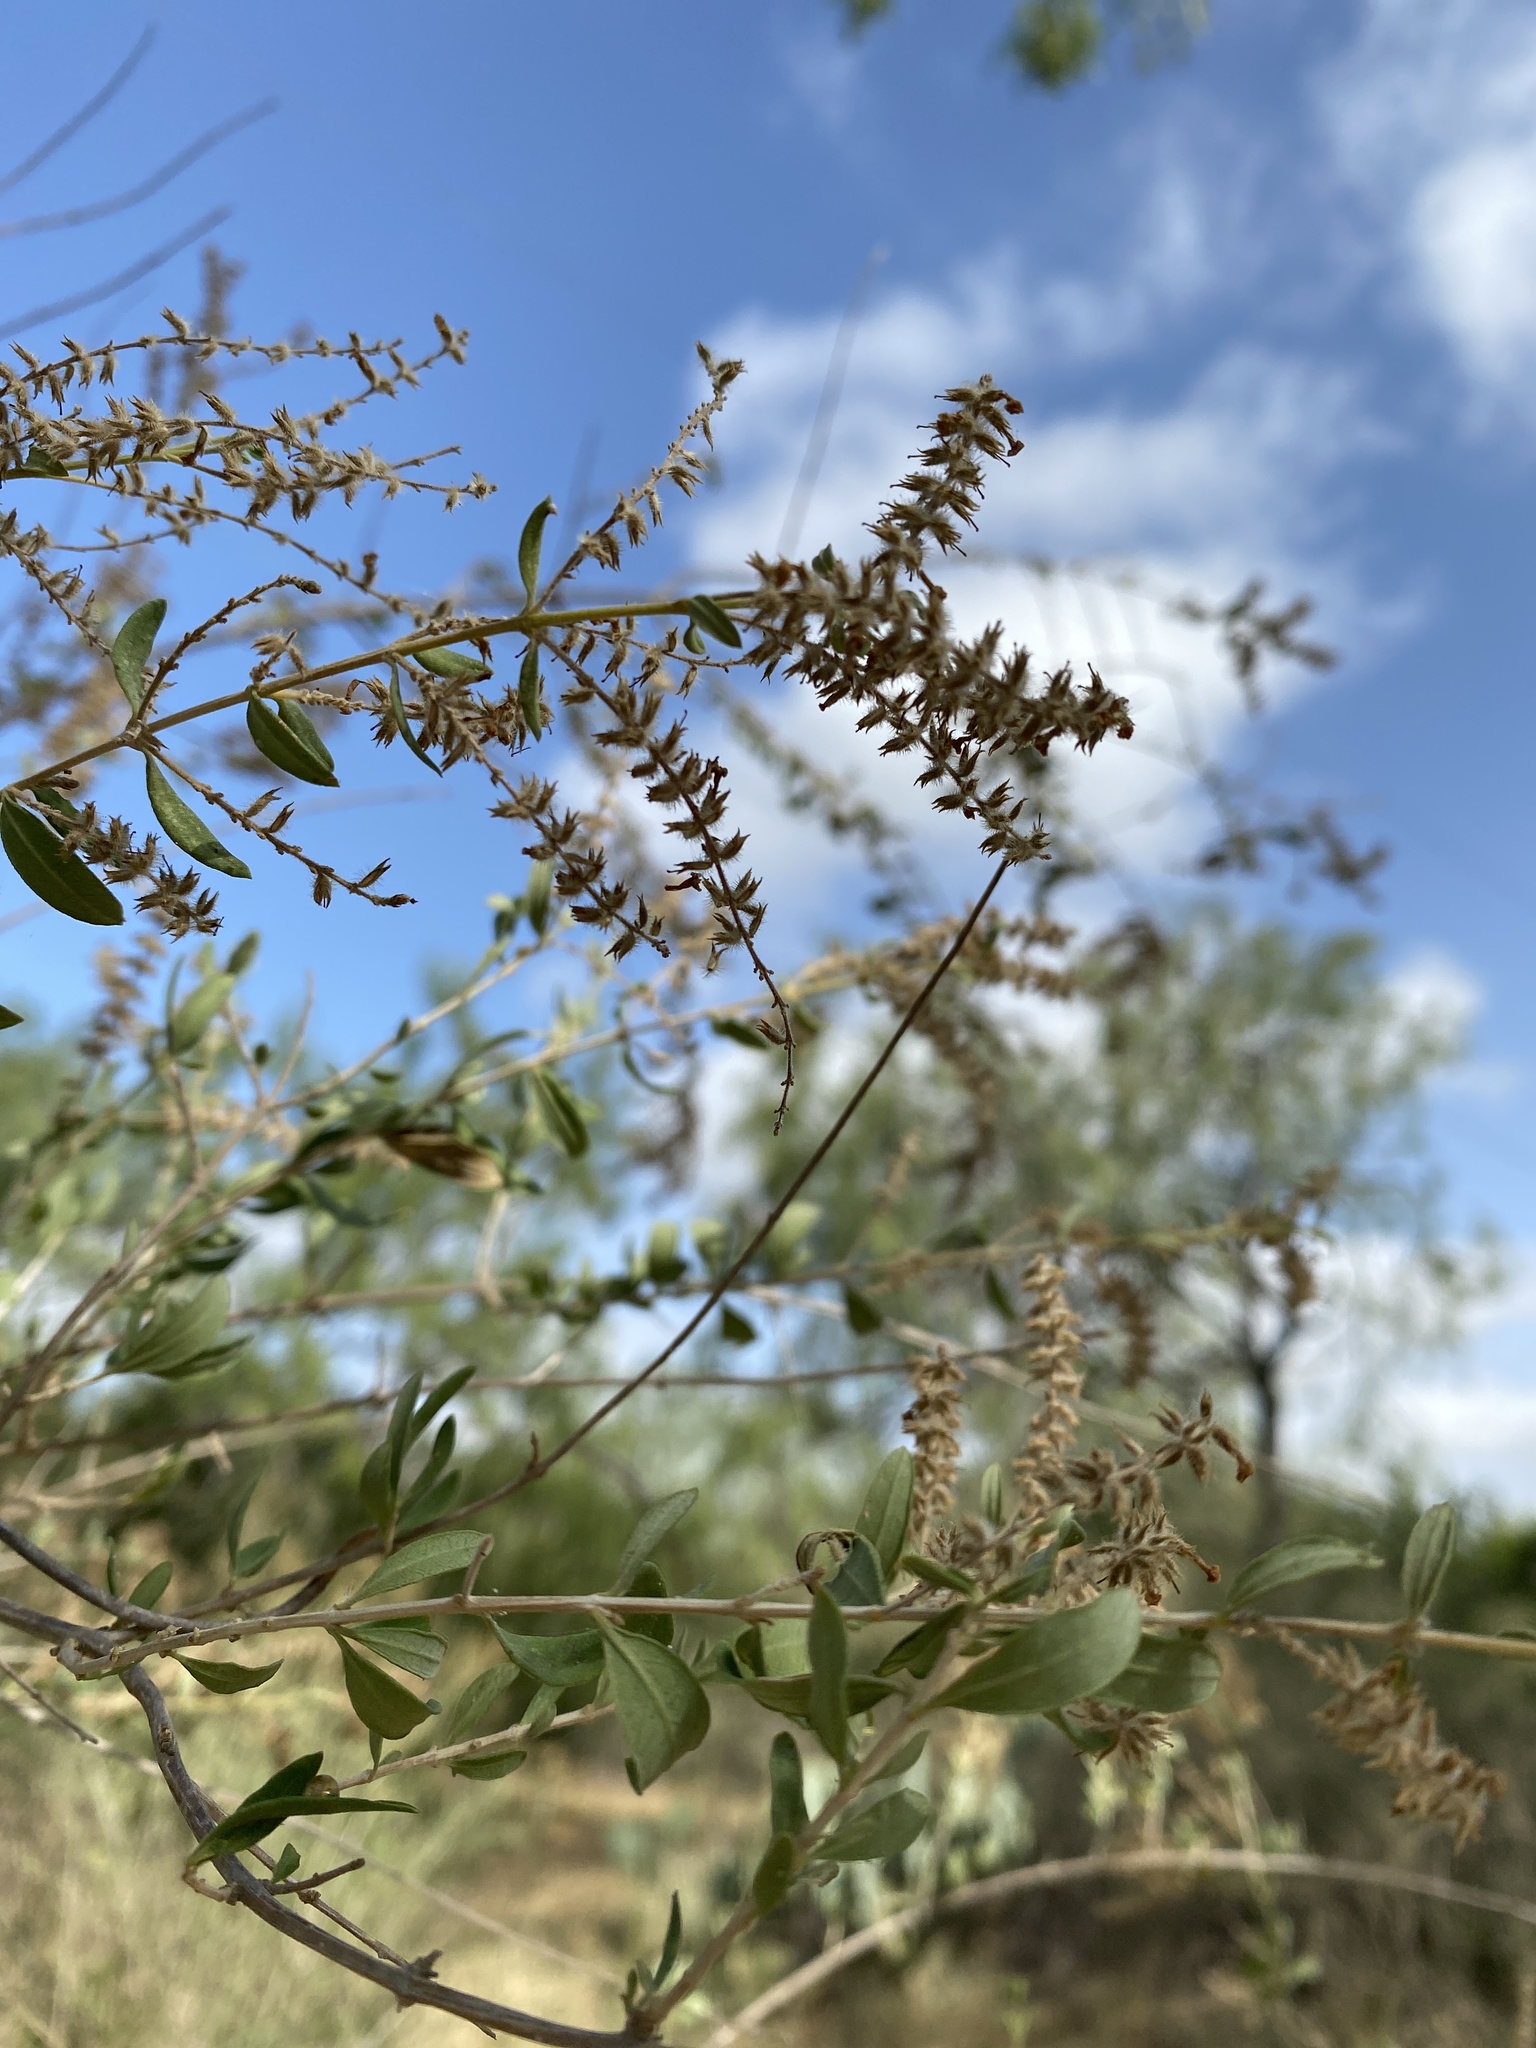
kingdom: Plantae
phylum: Tracheophyta
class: Magnoliopsida
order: Lamiales
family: Verbenaceae
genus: Aloysia
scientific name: Aloysia gratissima
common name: Common bee-brush
